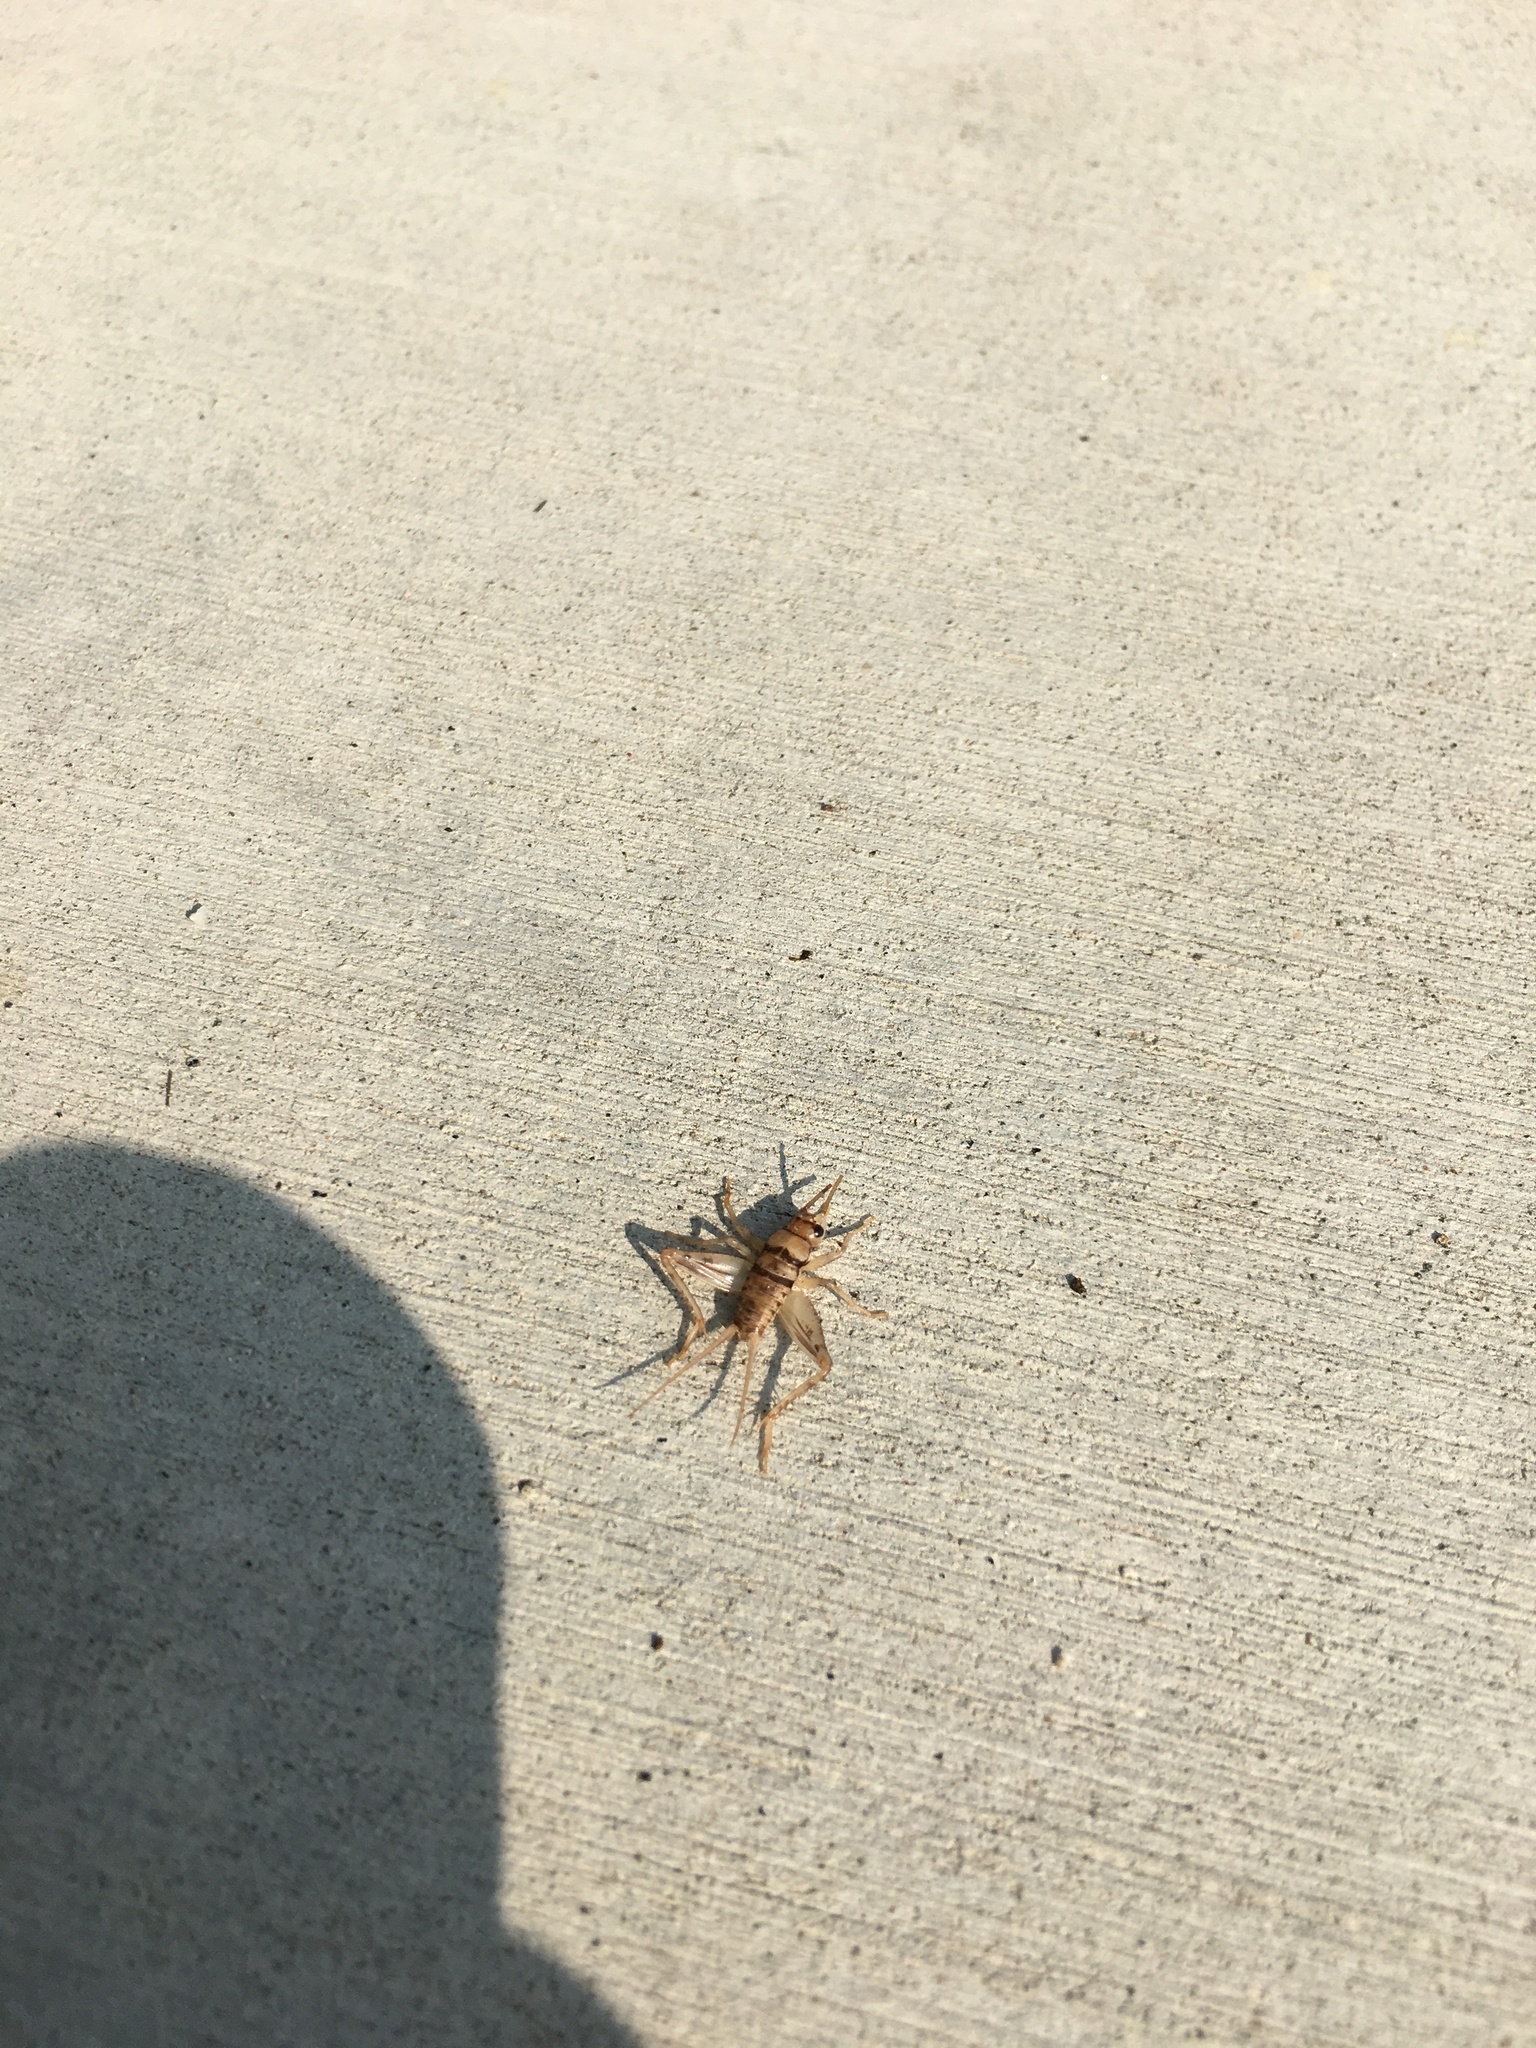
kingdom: Animalia
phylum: Arthropoda
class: Insecta
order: Orthoptera
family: Gryllidae
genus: Gryllodes
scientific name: Gryllodes sigillatus
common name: Tropical house cricket
